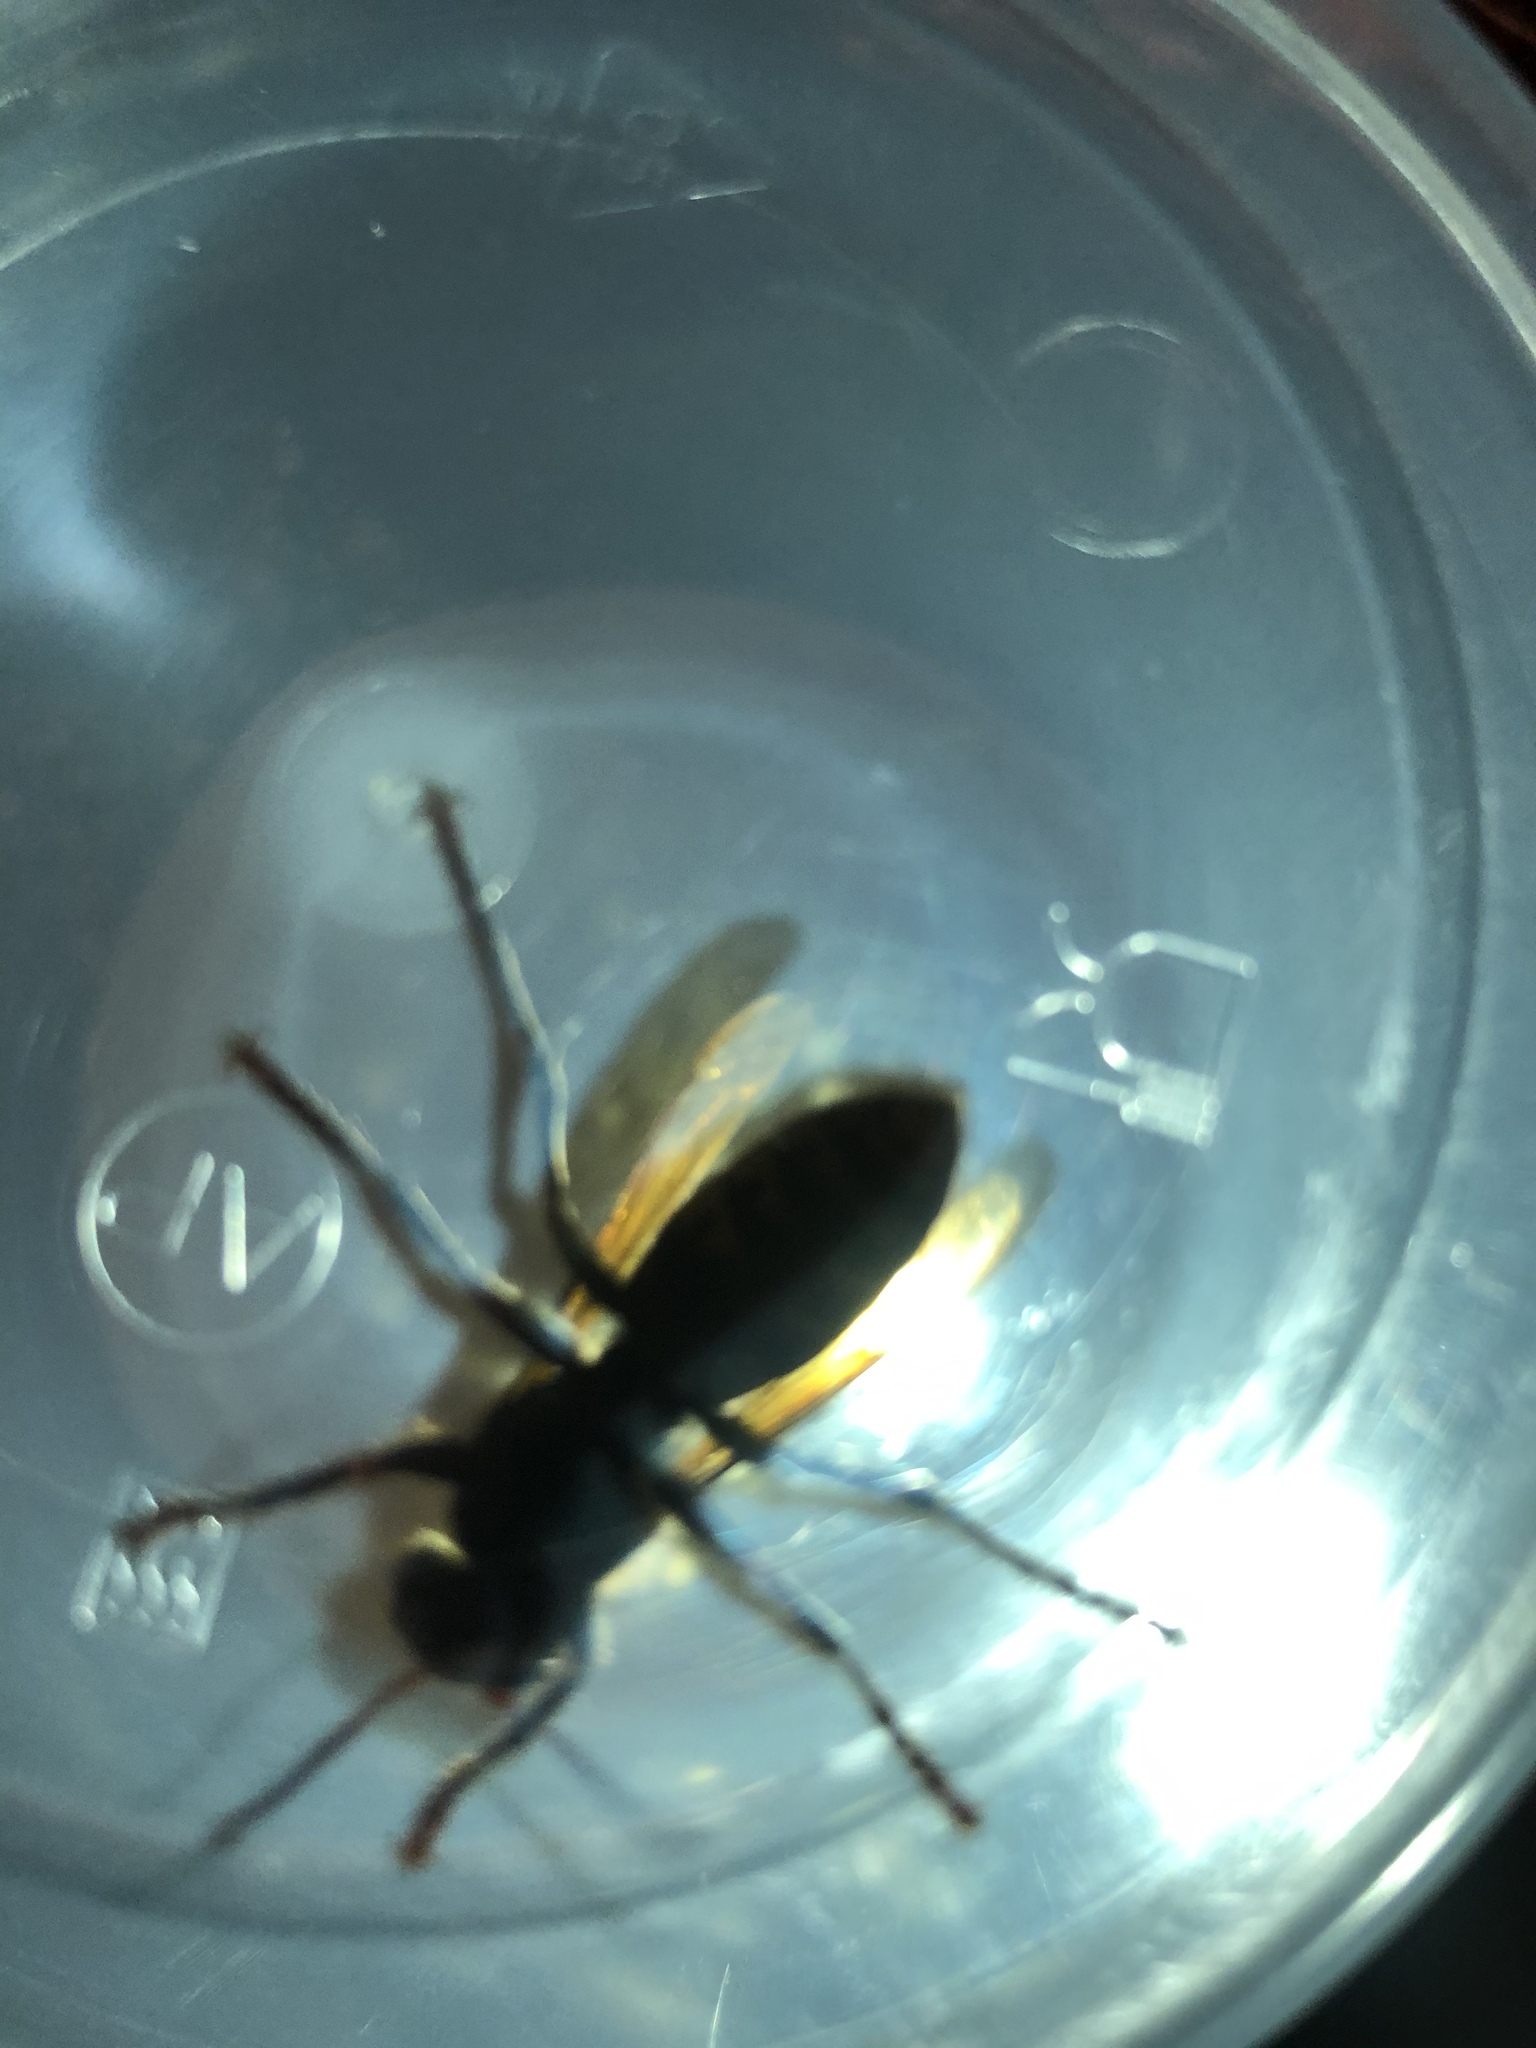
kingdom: Animalia
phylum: Arthropoda
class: Insecta
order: Hymenoptera
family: Vespidae
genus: Vespa
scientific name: Vespa crabro
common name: Hornet
